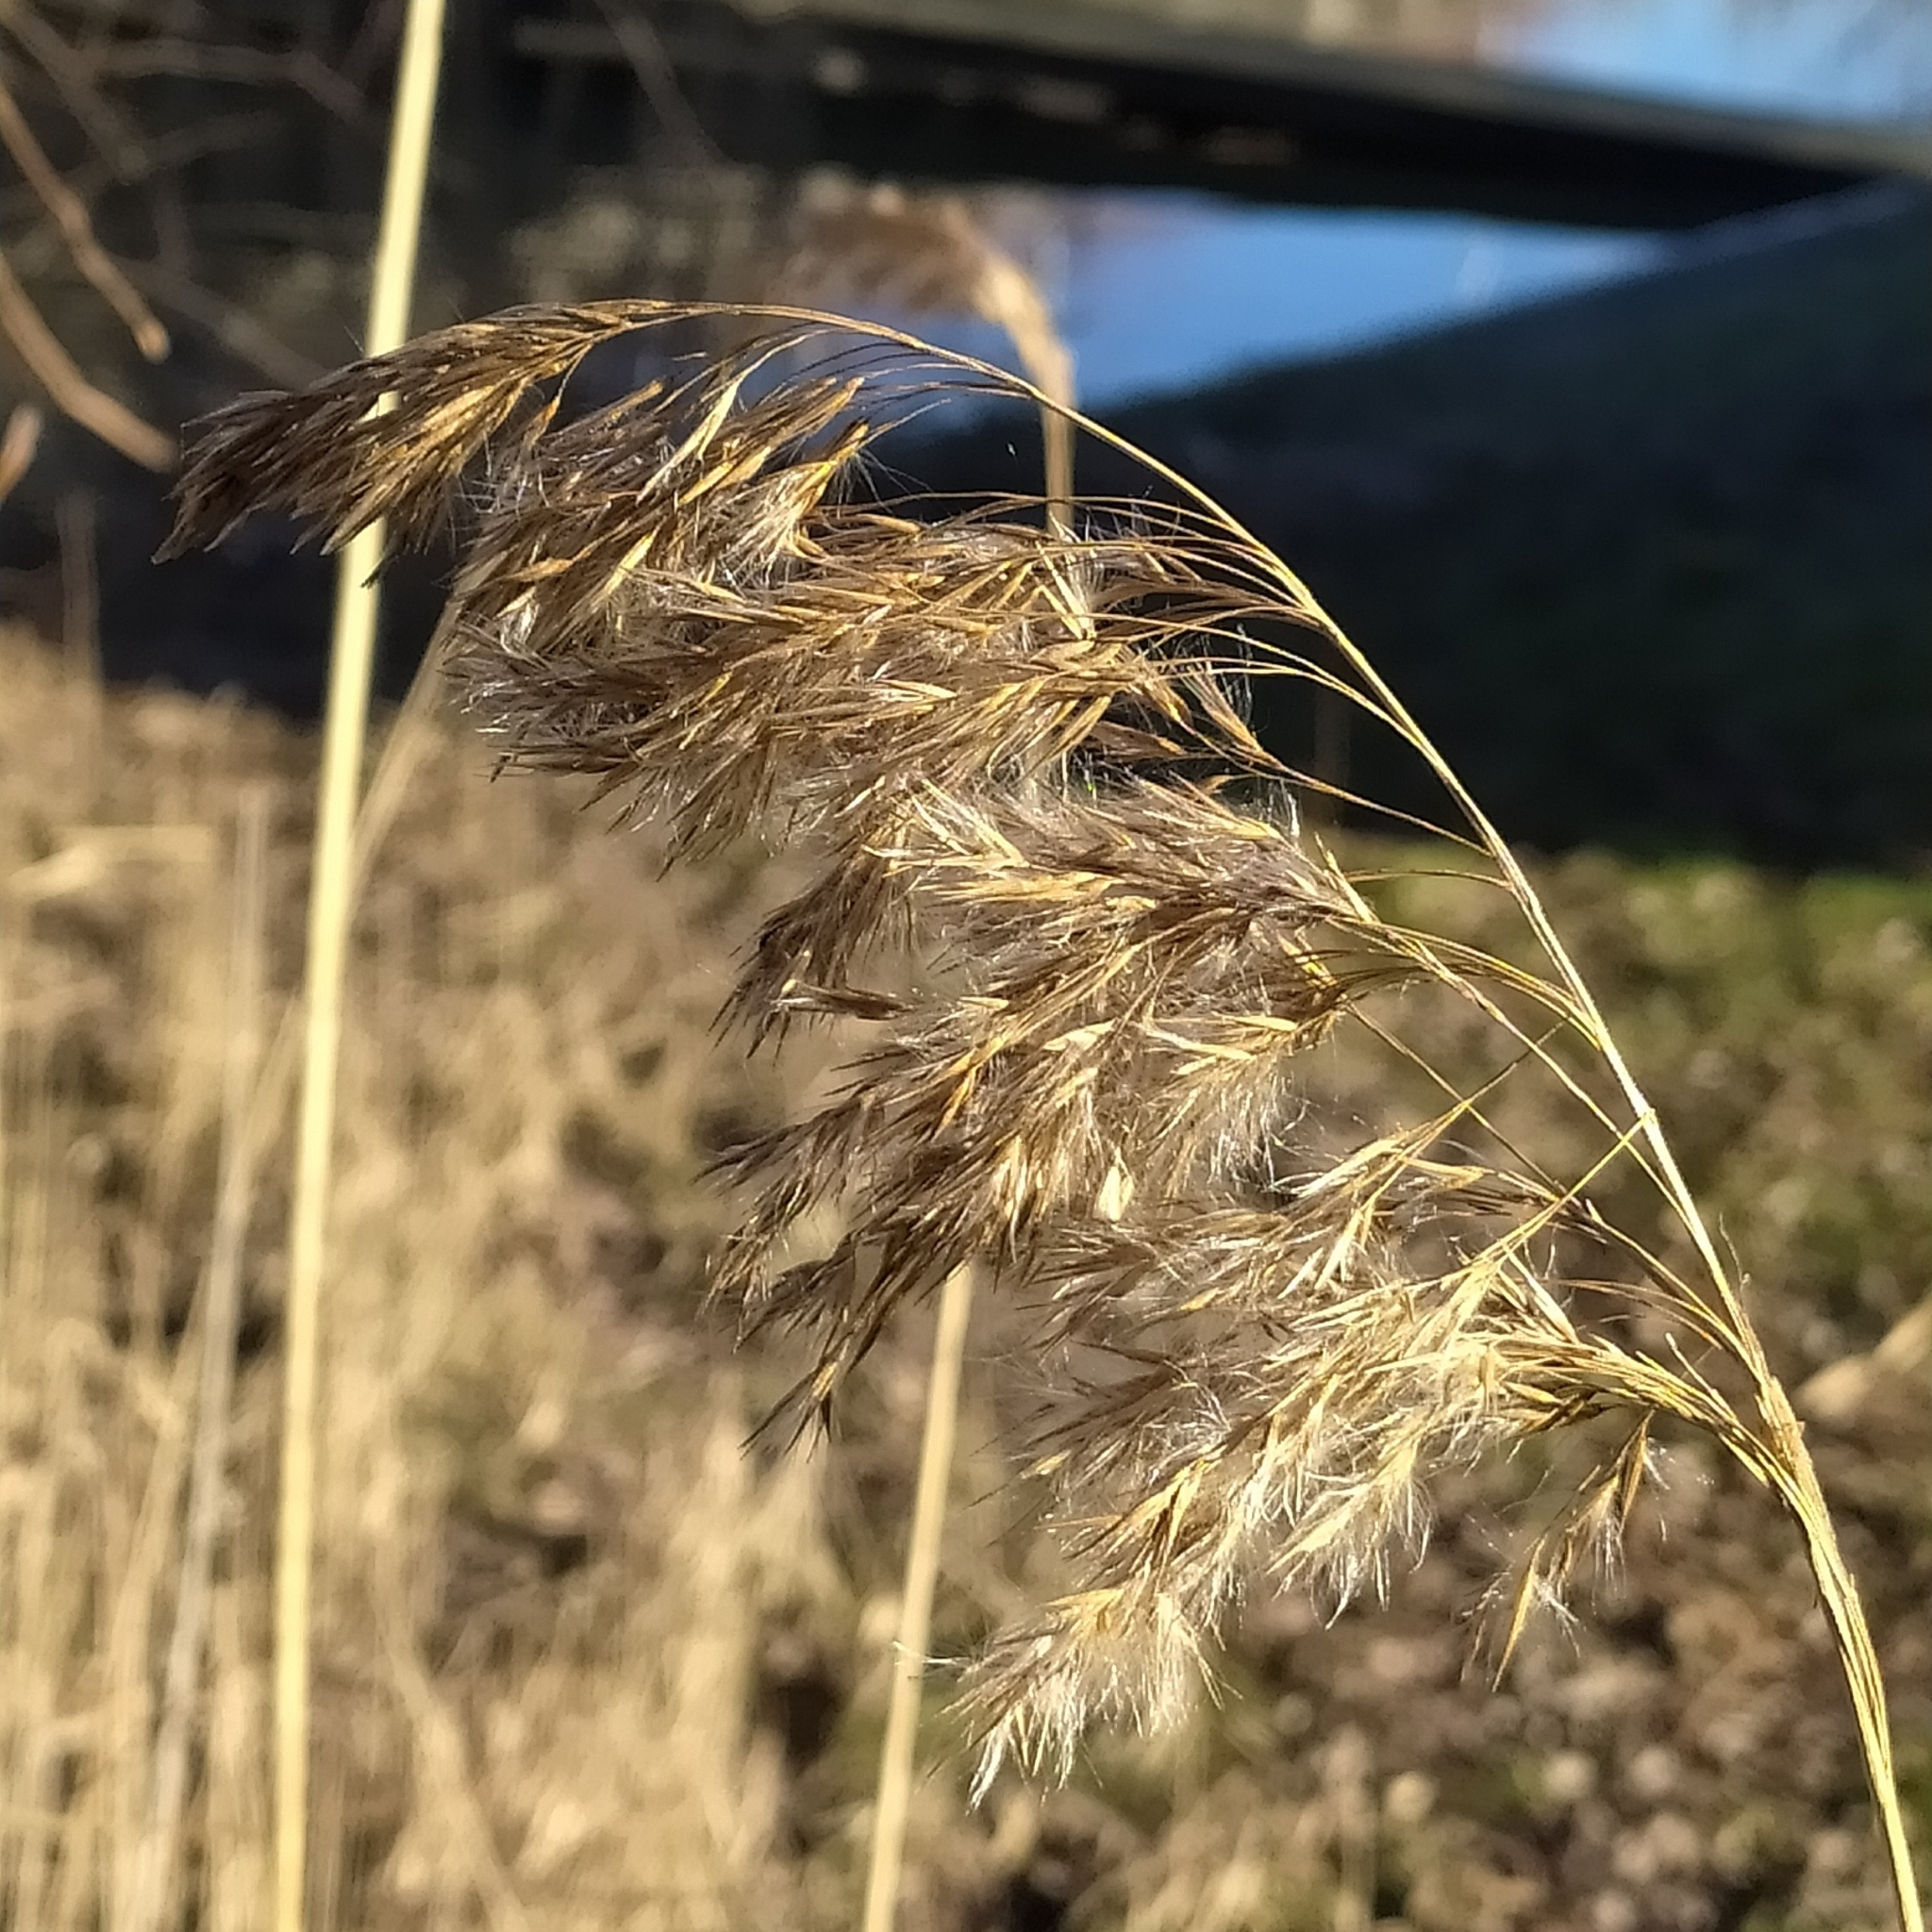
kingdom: Plantae
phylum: Tracheophyta
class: Liliopsida
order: Poales
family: Poaceae
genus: Phragmites
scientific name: Phragmites australis
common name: Common reed
